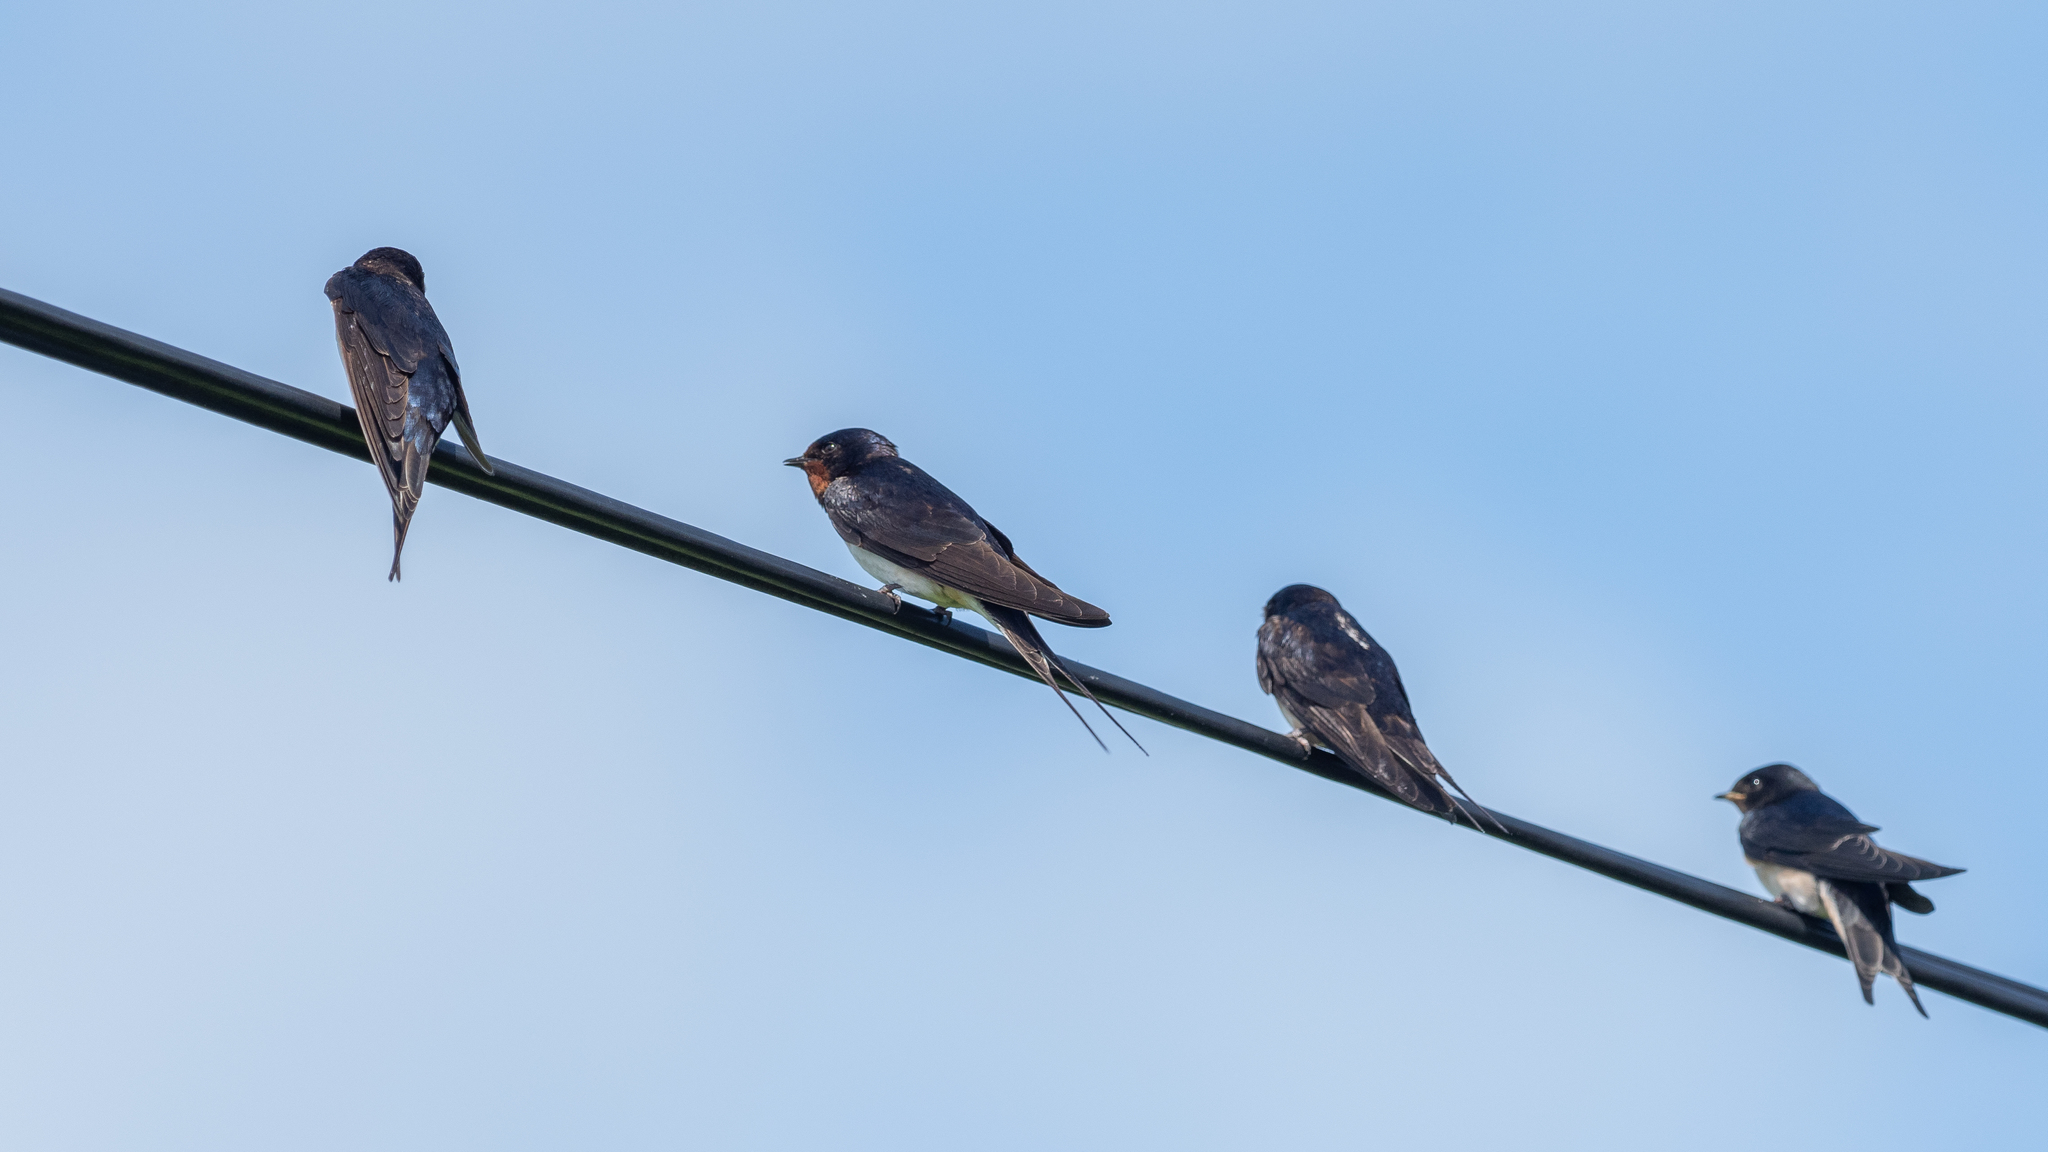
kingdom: Animalia
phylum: Chordata
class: Aves
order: Passeriformes
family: Hirundinidae
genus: Hirundo
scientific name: Hirundo rustica
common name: Barn swallow
